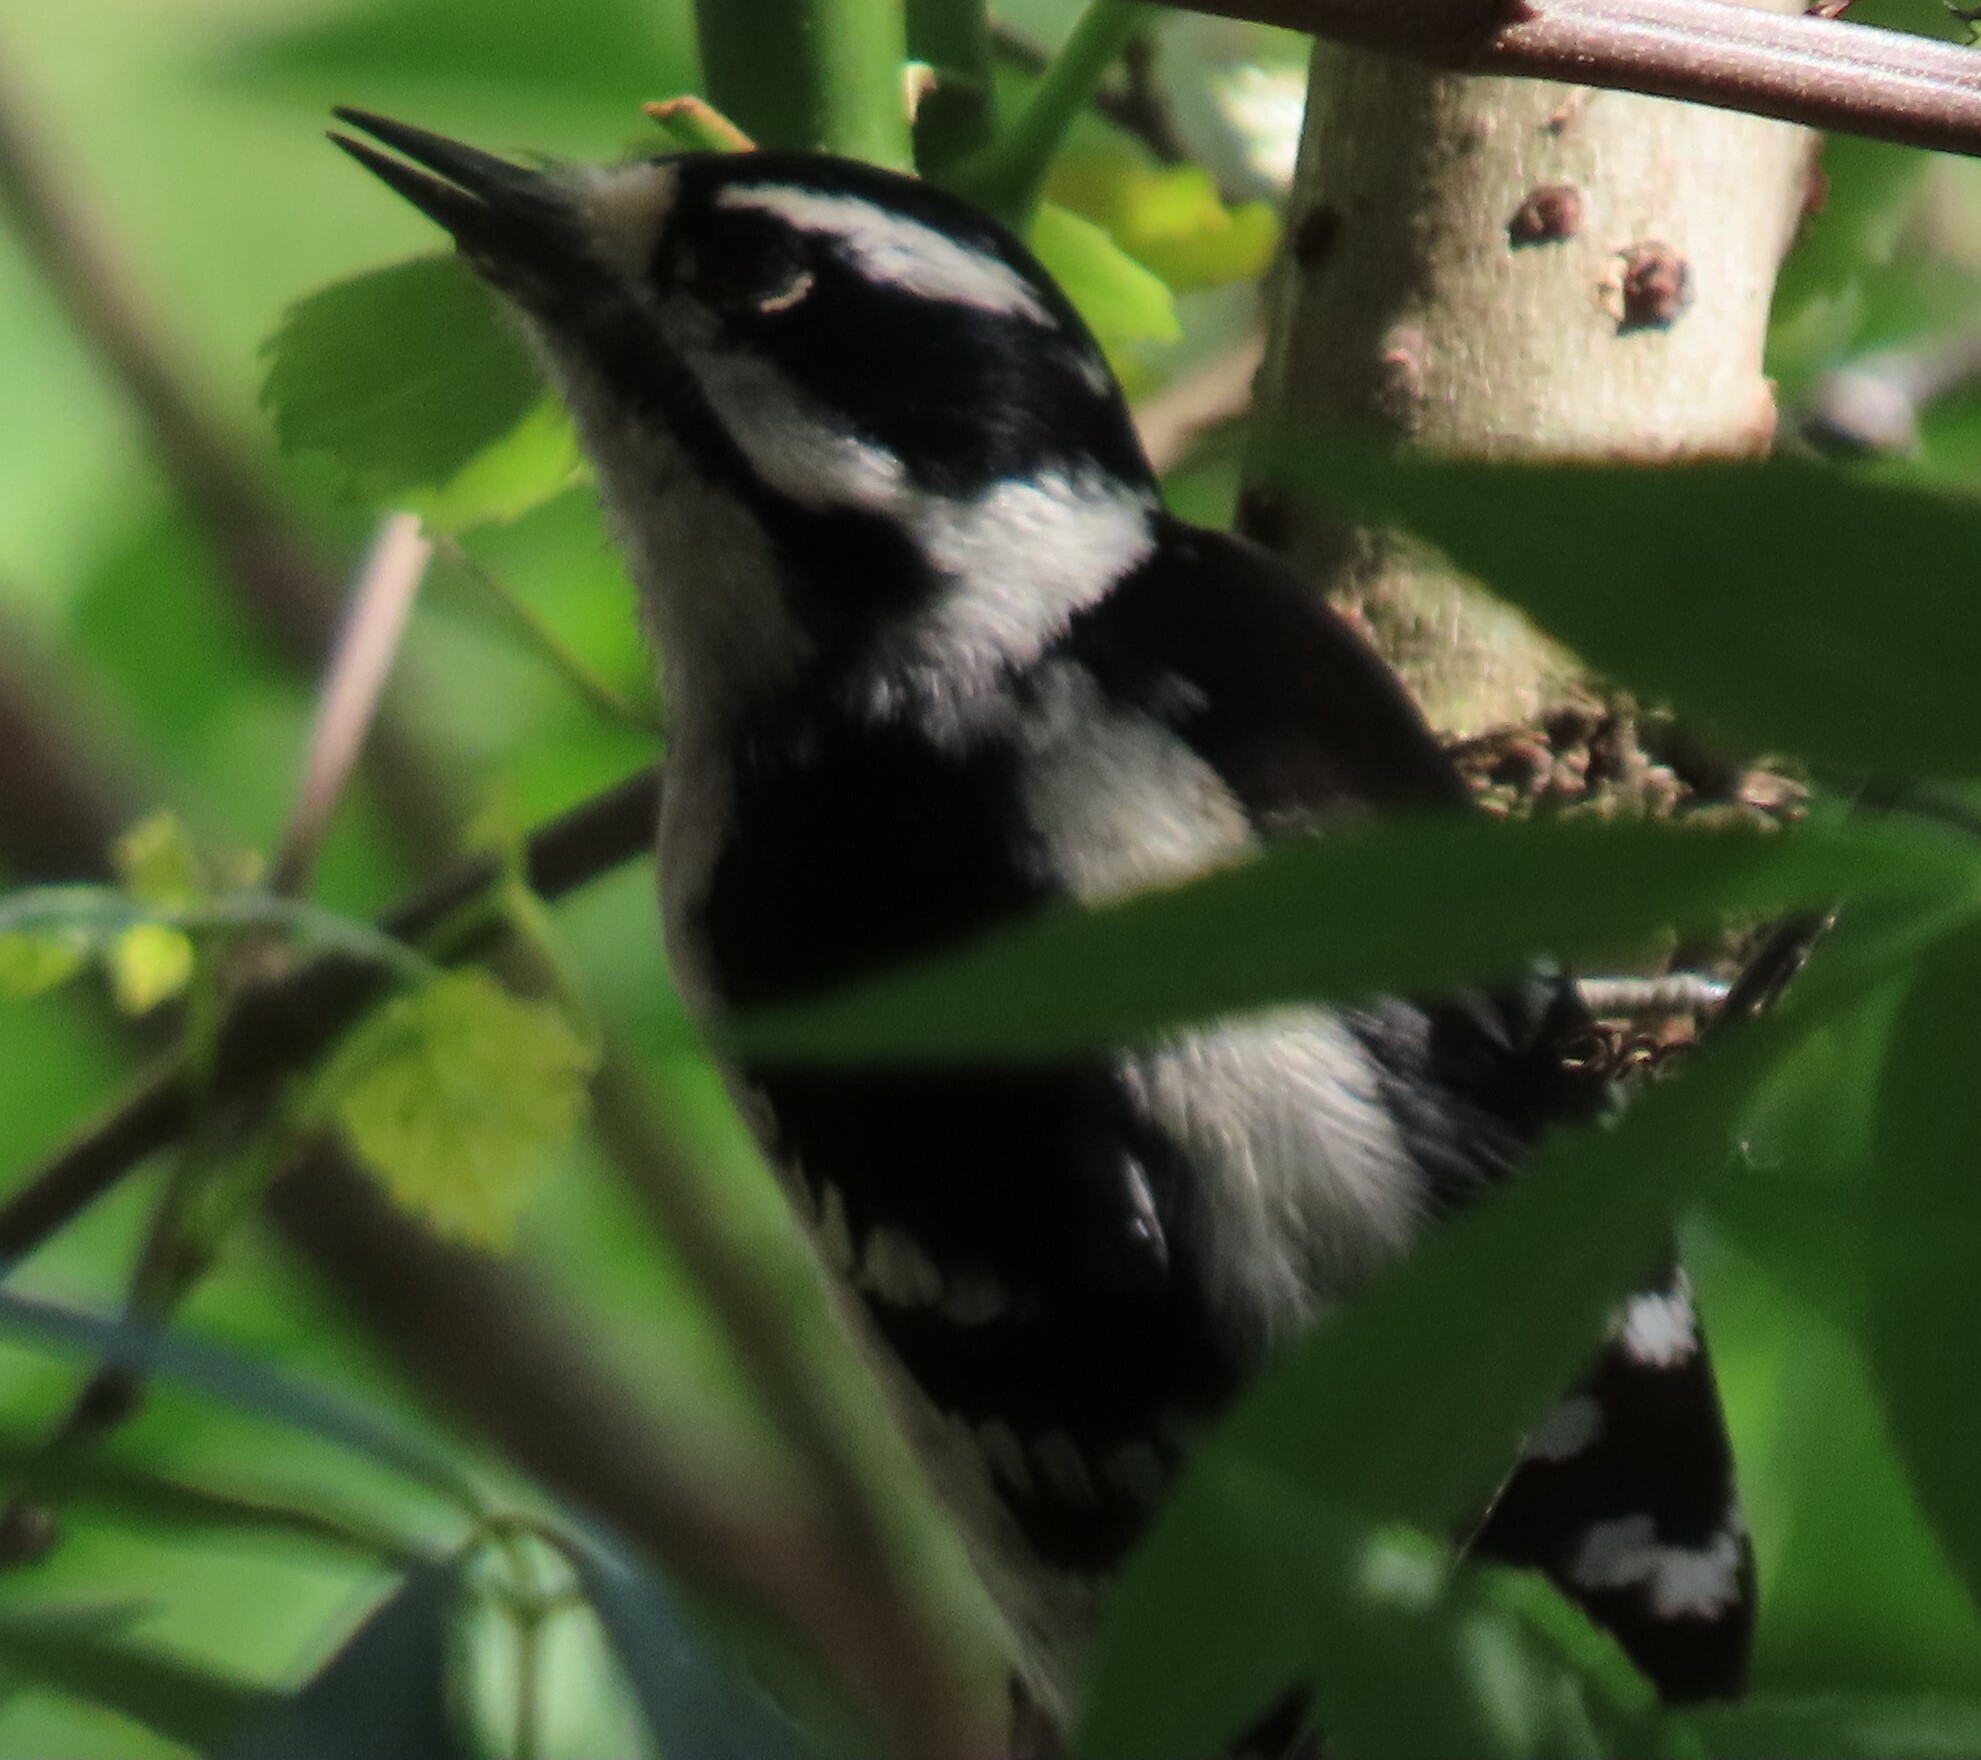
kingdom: Animalia
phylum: Chordata
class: Aves
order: Piciformes
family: Picidae
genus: Dryobates
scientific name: Dryobates pubescens
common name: Downy woodpecker
